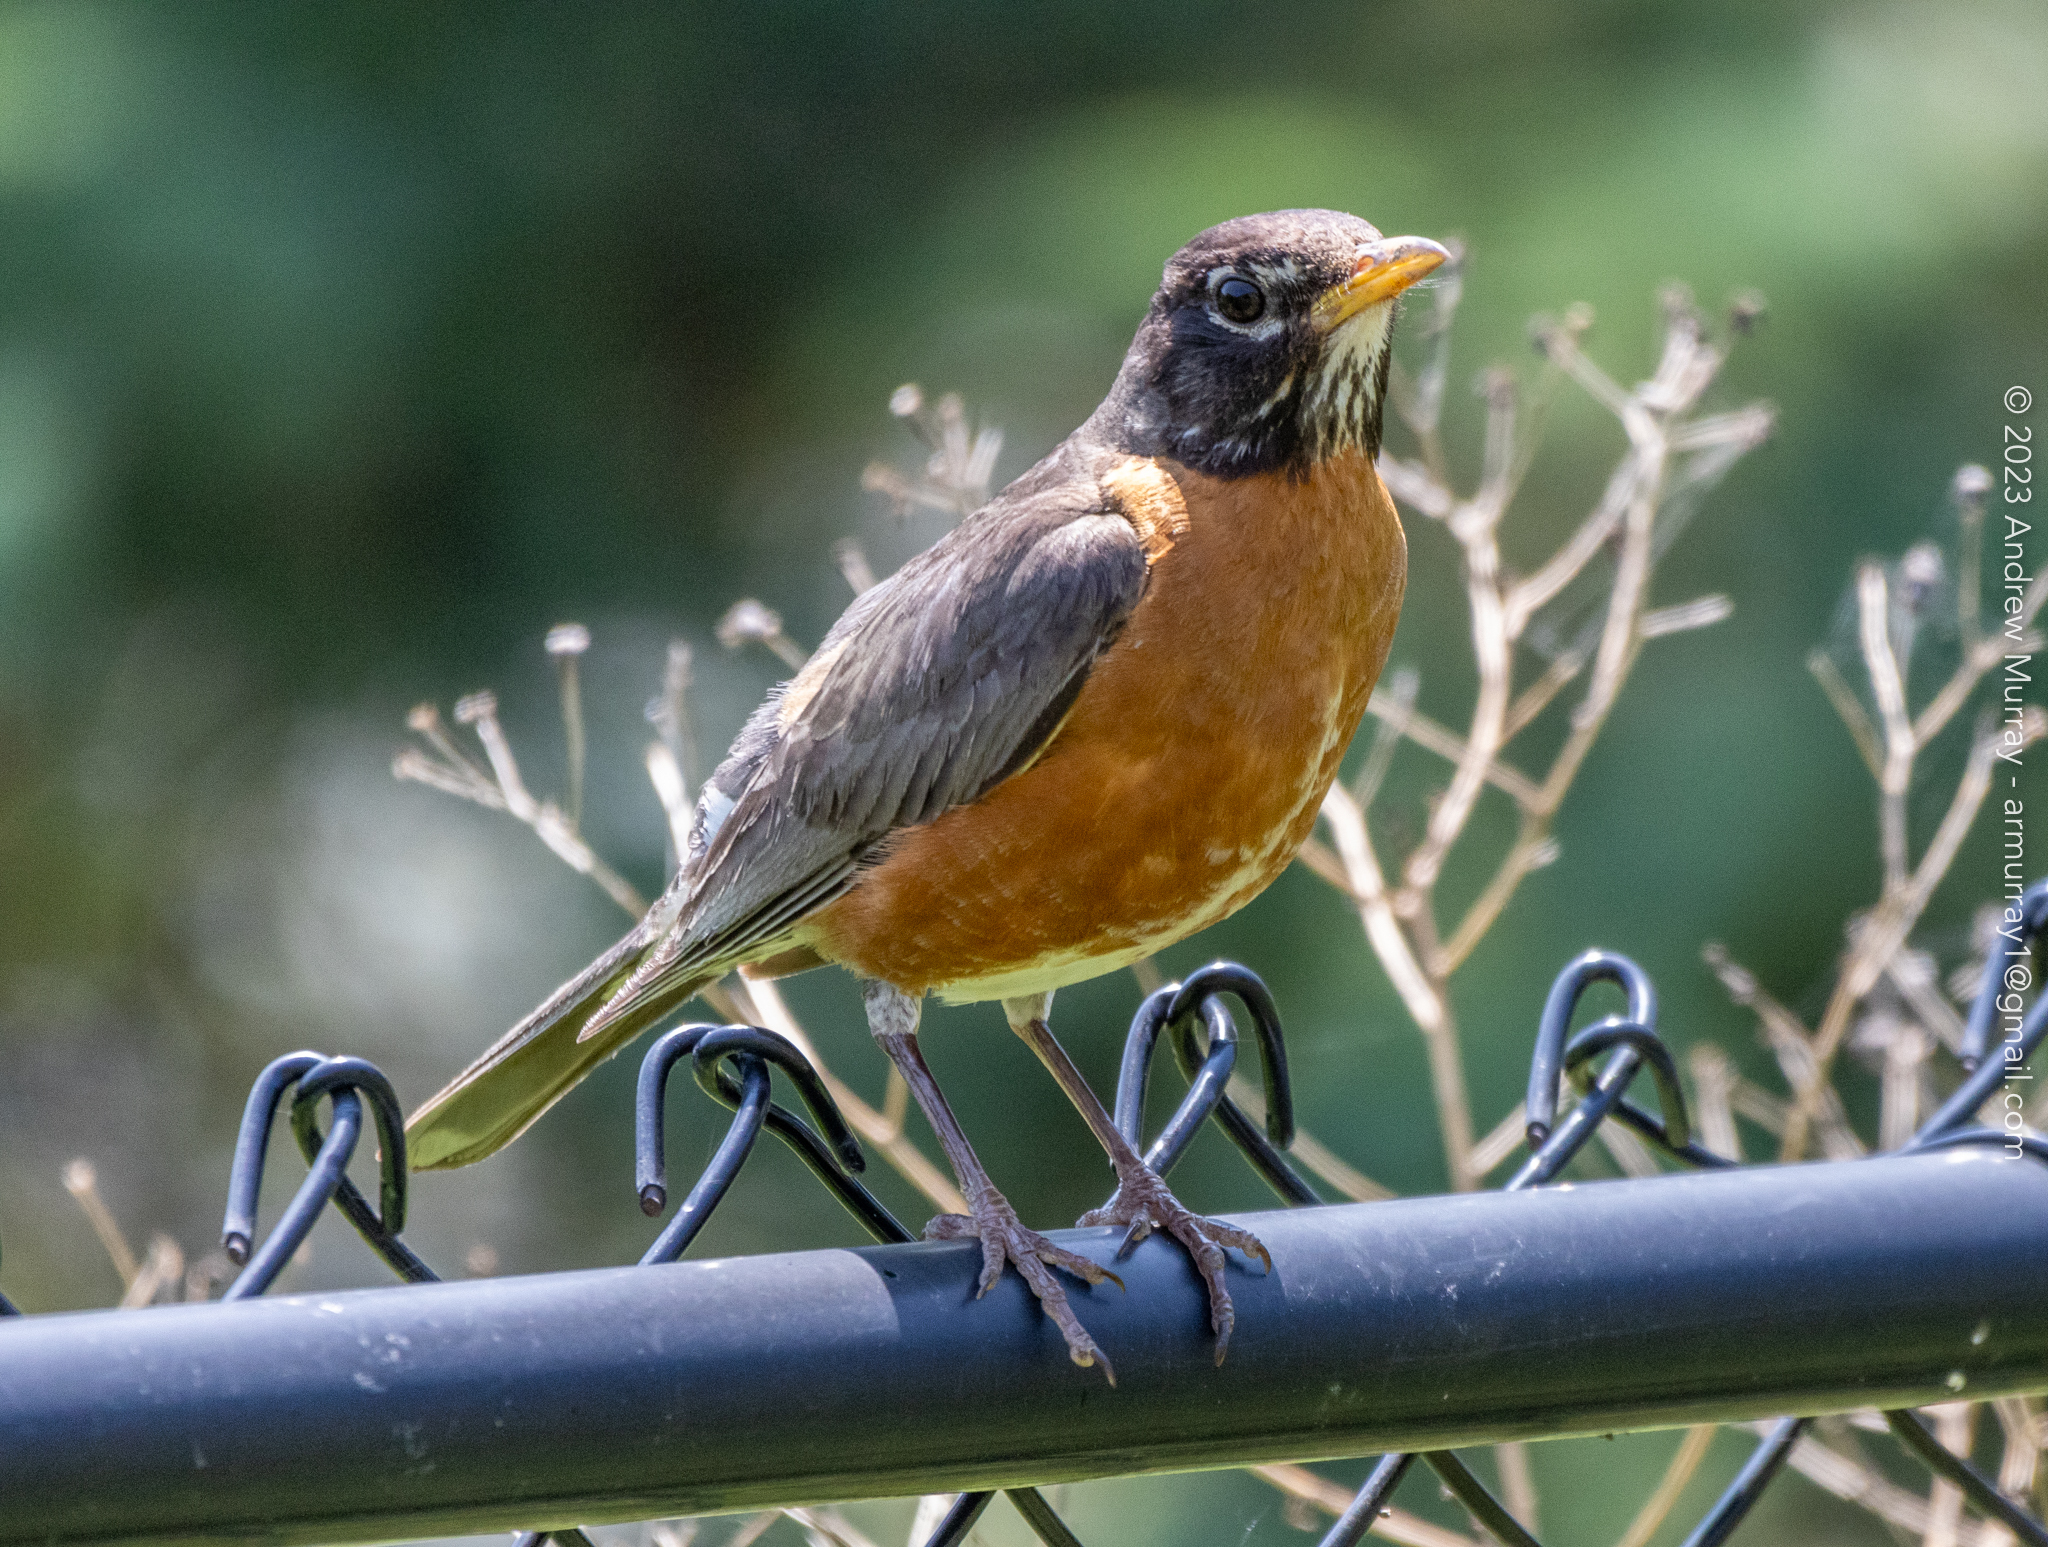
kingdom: Animalia
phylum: Chordata
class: Aves
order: Passeriformes
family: Turdidae
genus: Turdus
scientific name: Turdus migratorius
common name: American robin
